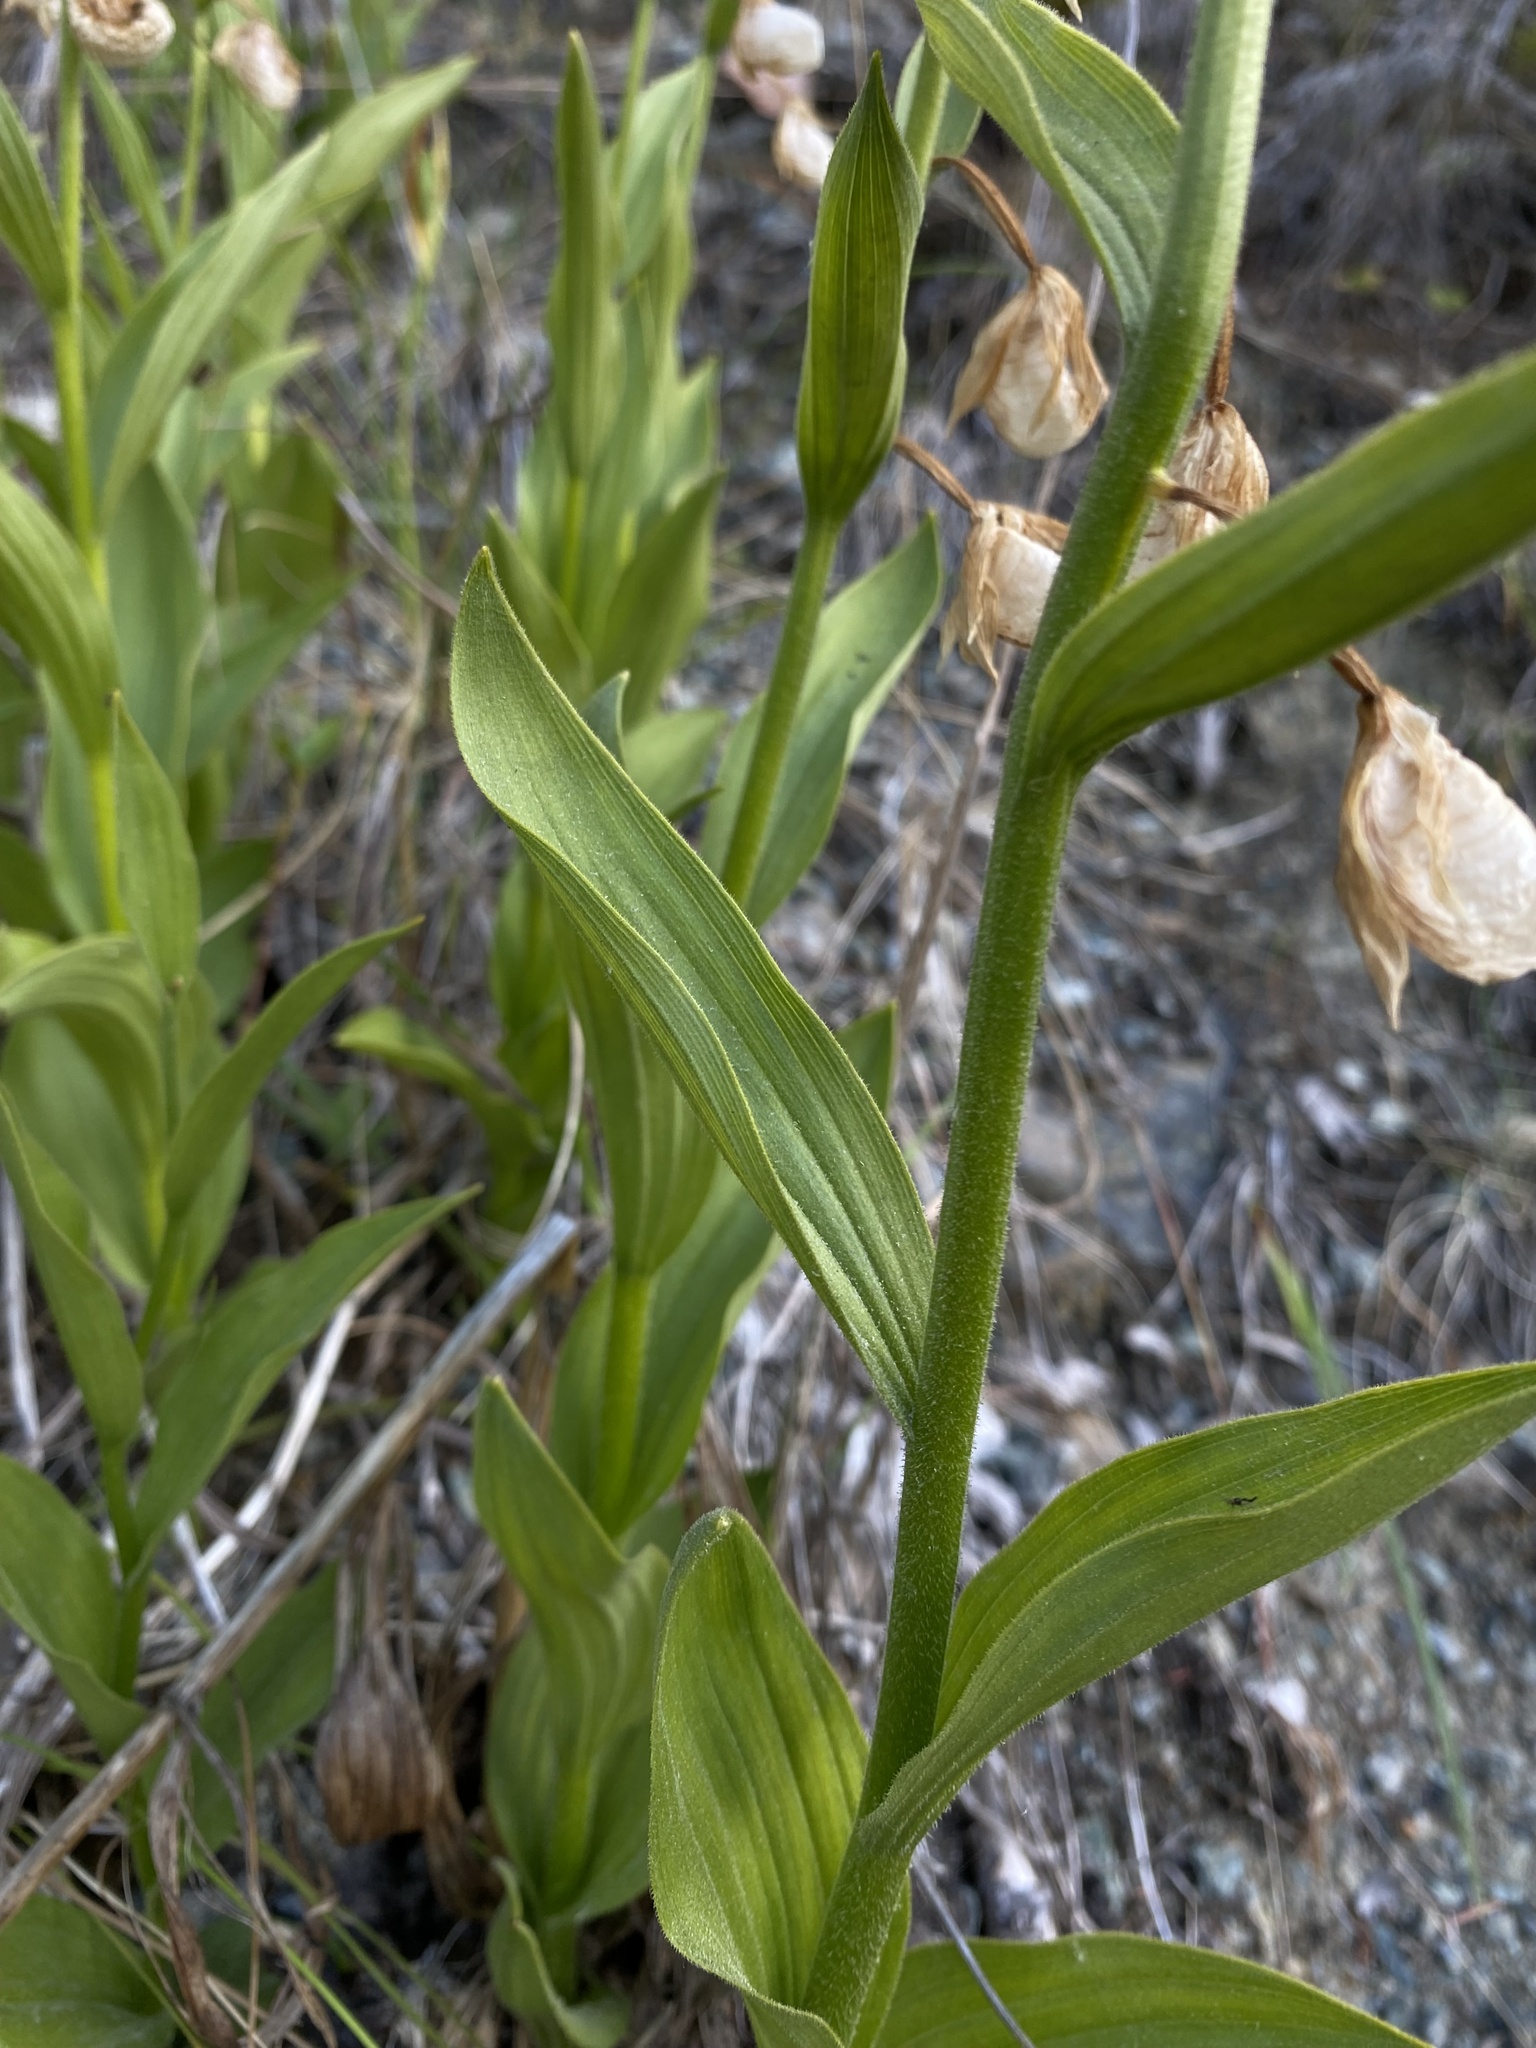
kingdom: Plantae
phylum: Tracheophyta
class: Liliopsida
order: Asparagales
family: Orchidaceae
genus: Cypripedium
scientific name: Cypripedium californicum
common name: California lady's slipper
